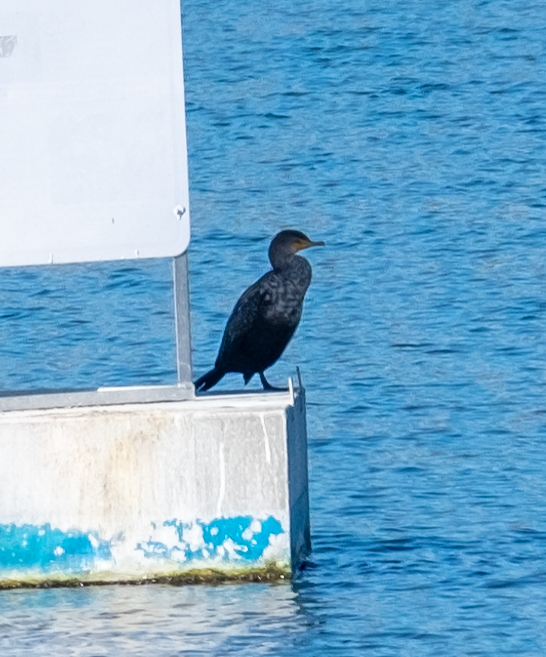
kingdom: Animalia
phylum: Chordata
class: Aves
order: Suliformes
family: Phalacrocoracidae
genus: Phalacrocorax
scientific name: Phalacrocorax auritus
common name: Double-crested cormorant
